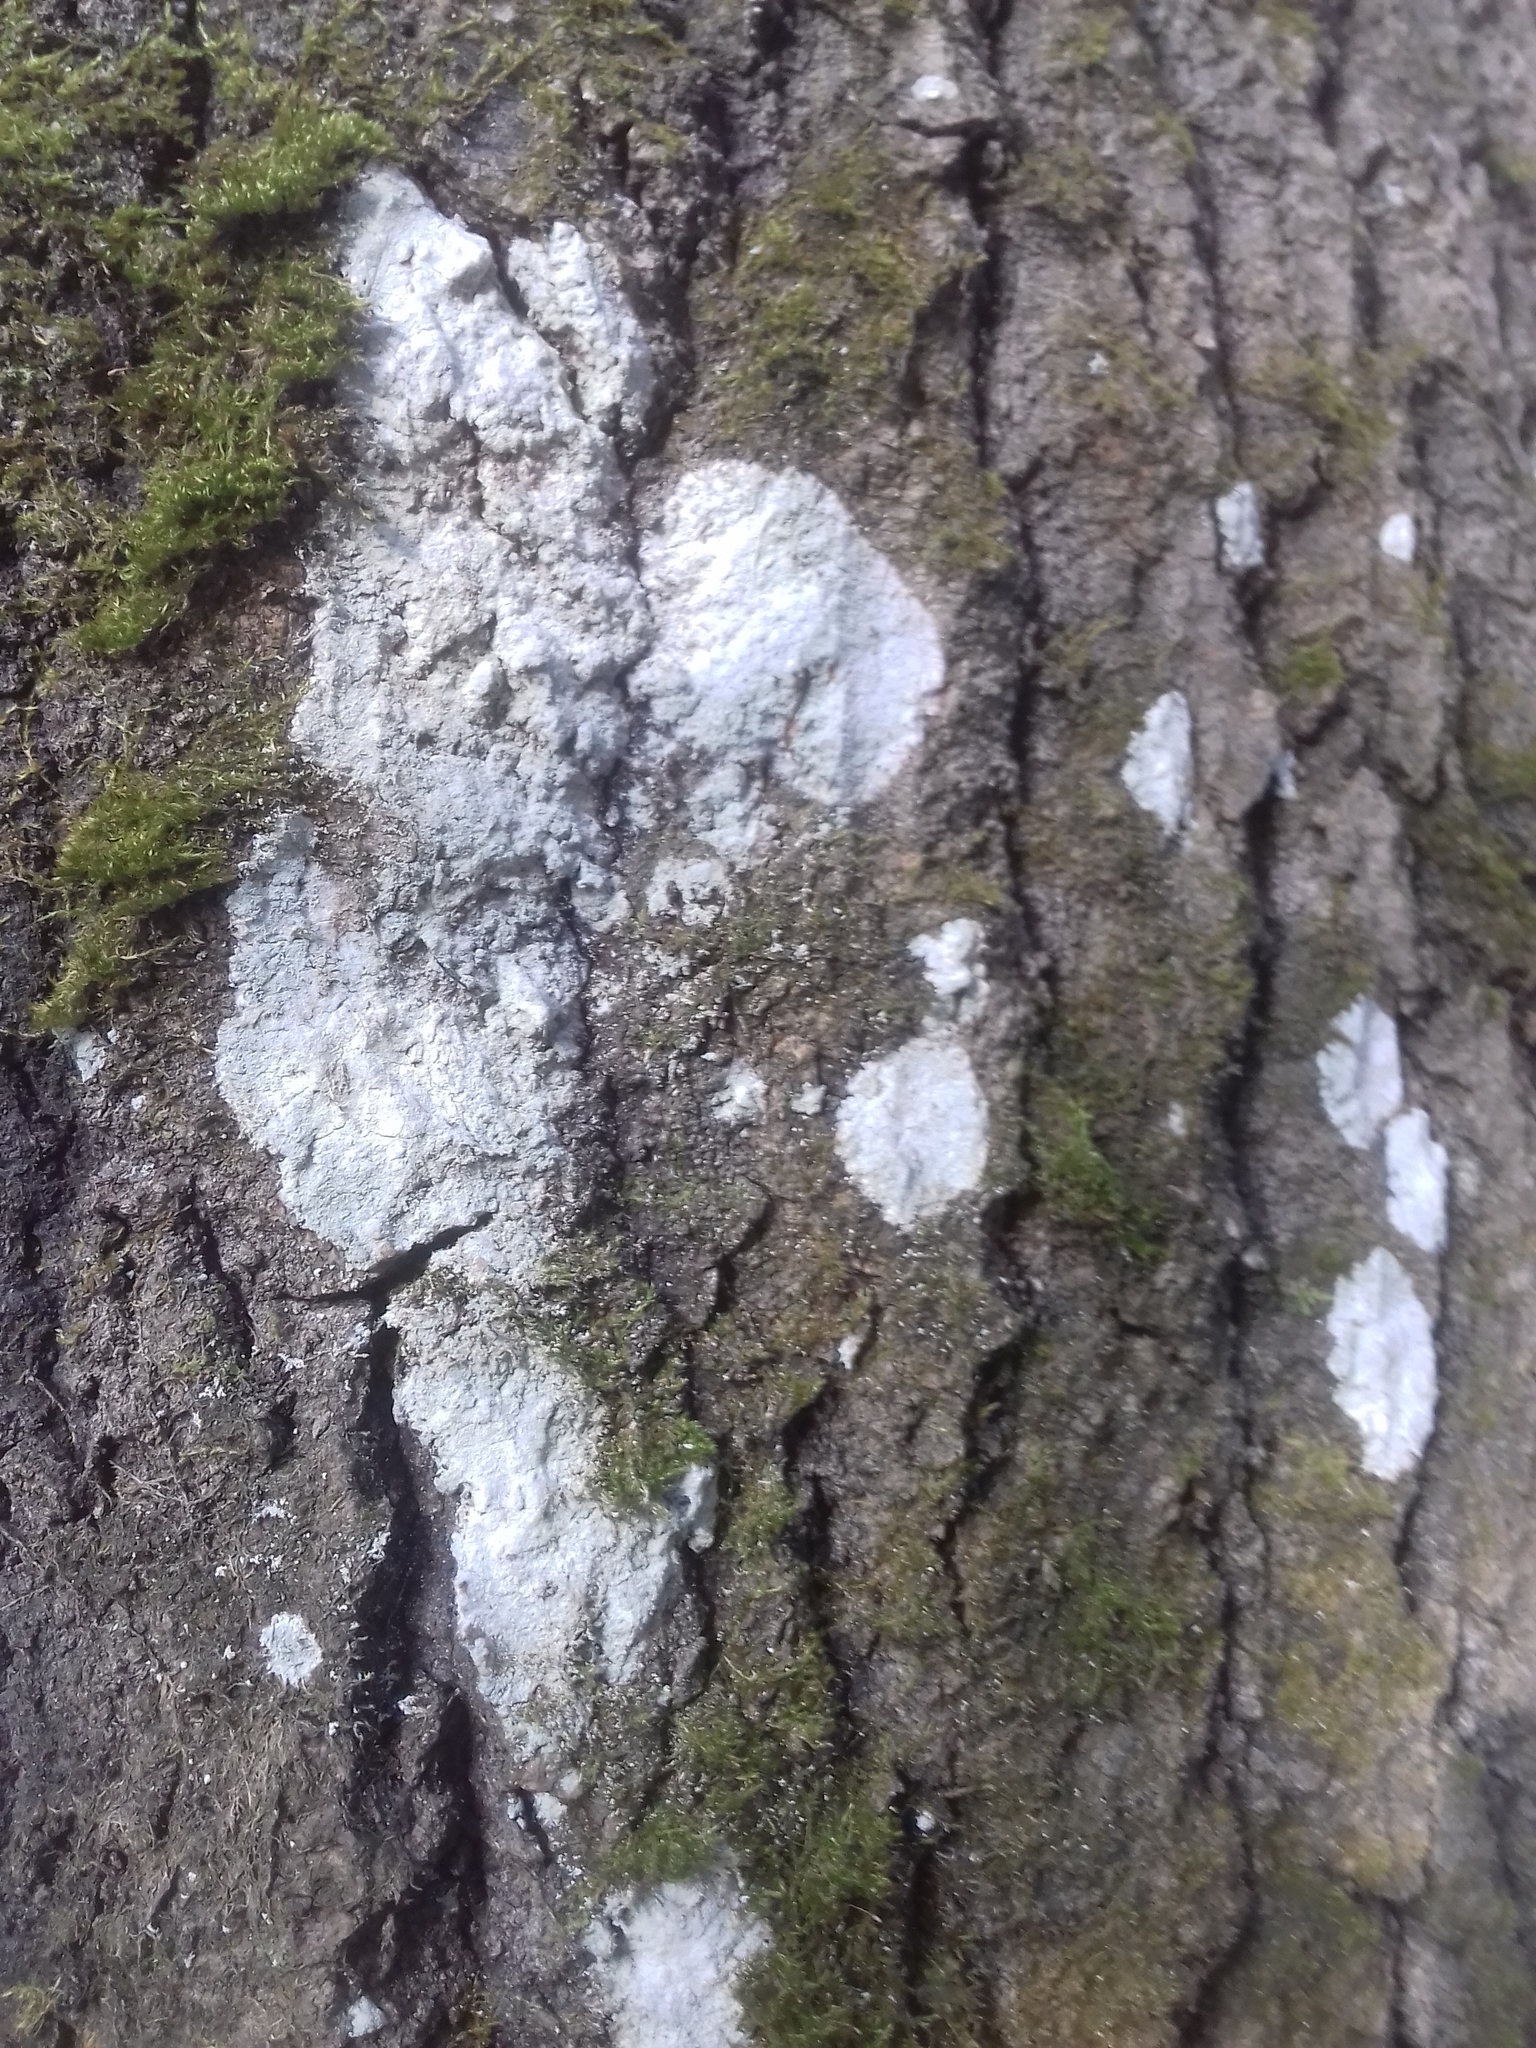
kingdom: Fungi
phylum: Ascomycota
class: Lecanoromycetes
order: Ostropales
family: Phlyctidaceae
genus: Phlyctis
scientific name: Phlyctis argena
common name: Whitewash lichen
